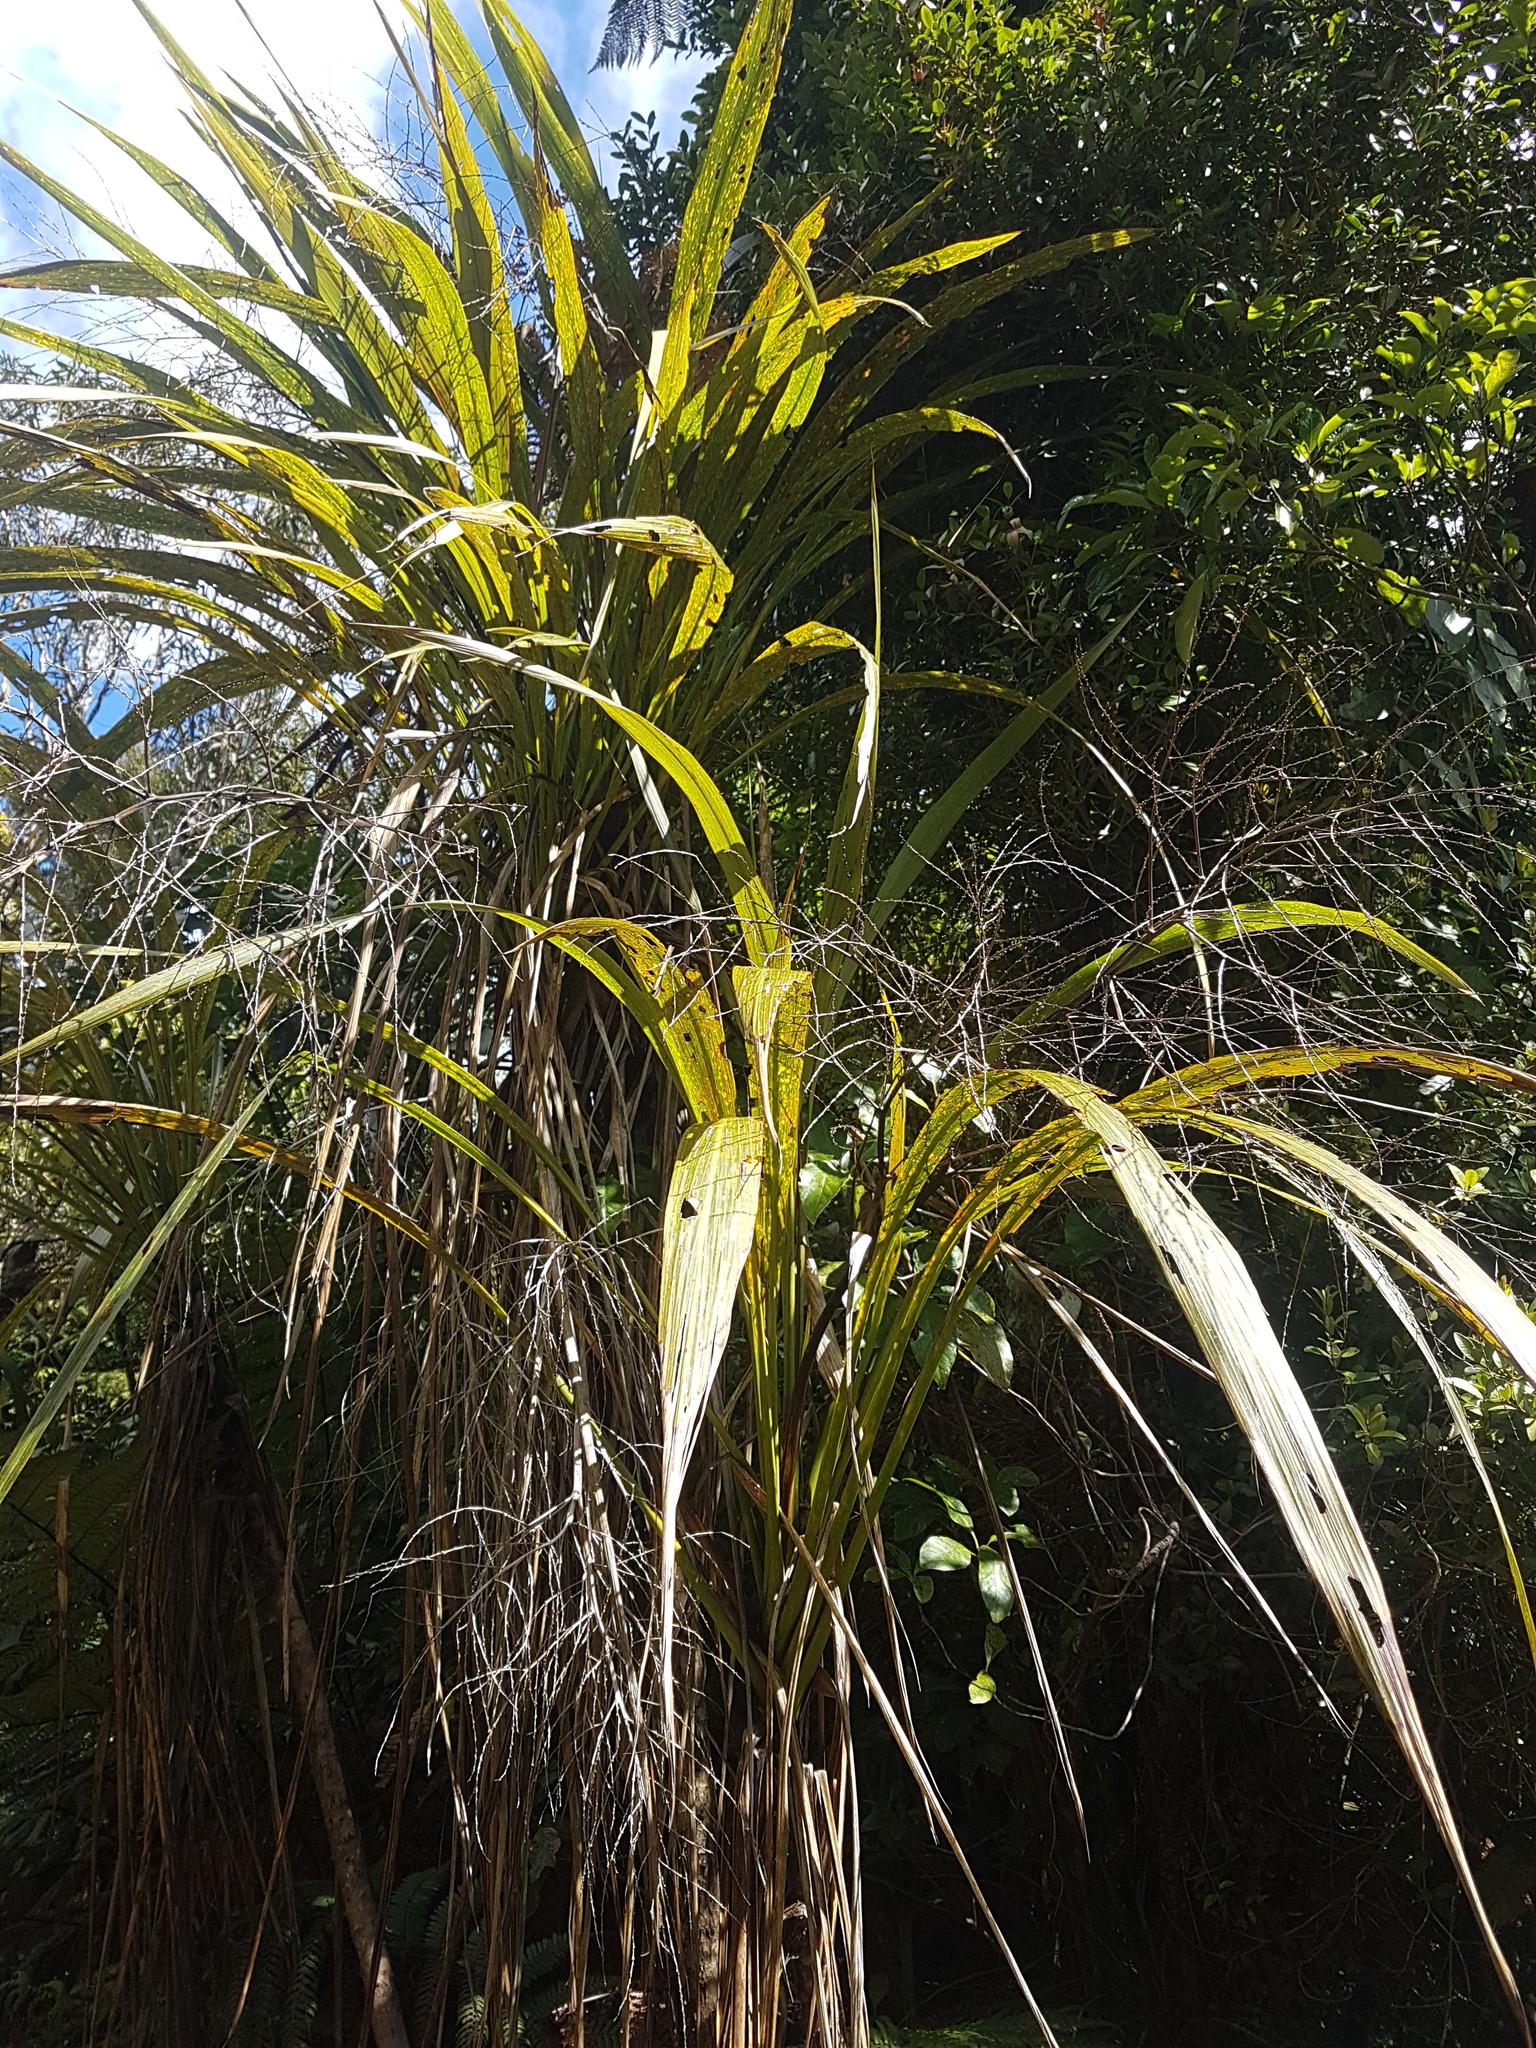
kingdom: Plantae
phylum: Tracheophyta
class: Liliopsida
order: Asparagales
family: Asparagaceae
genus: Cordyline
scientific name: Cordyline banksii
